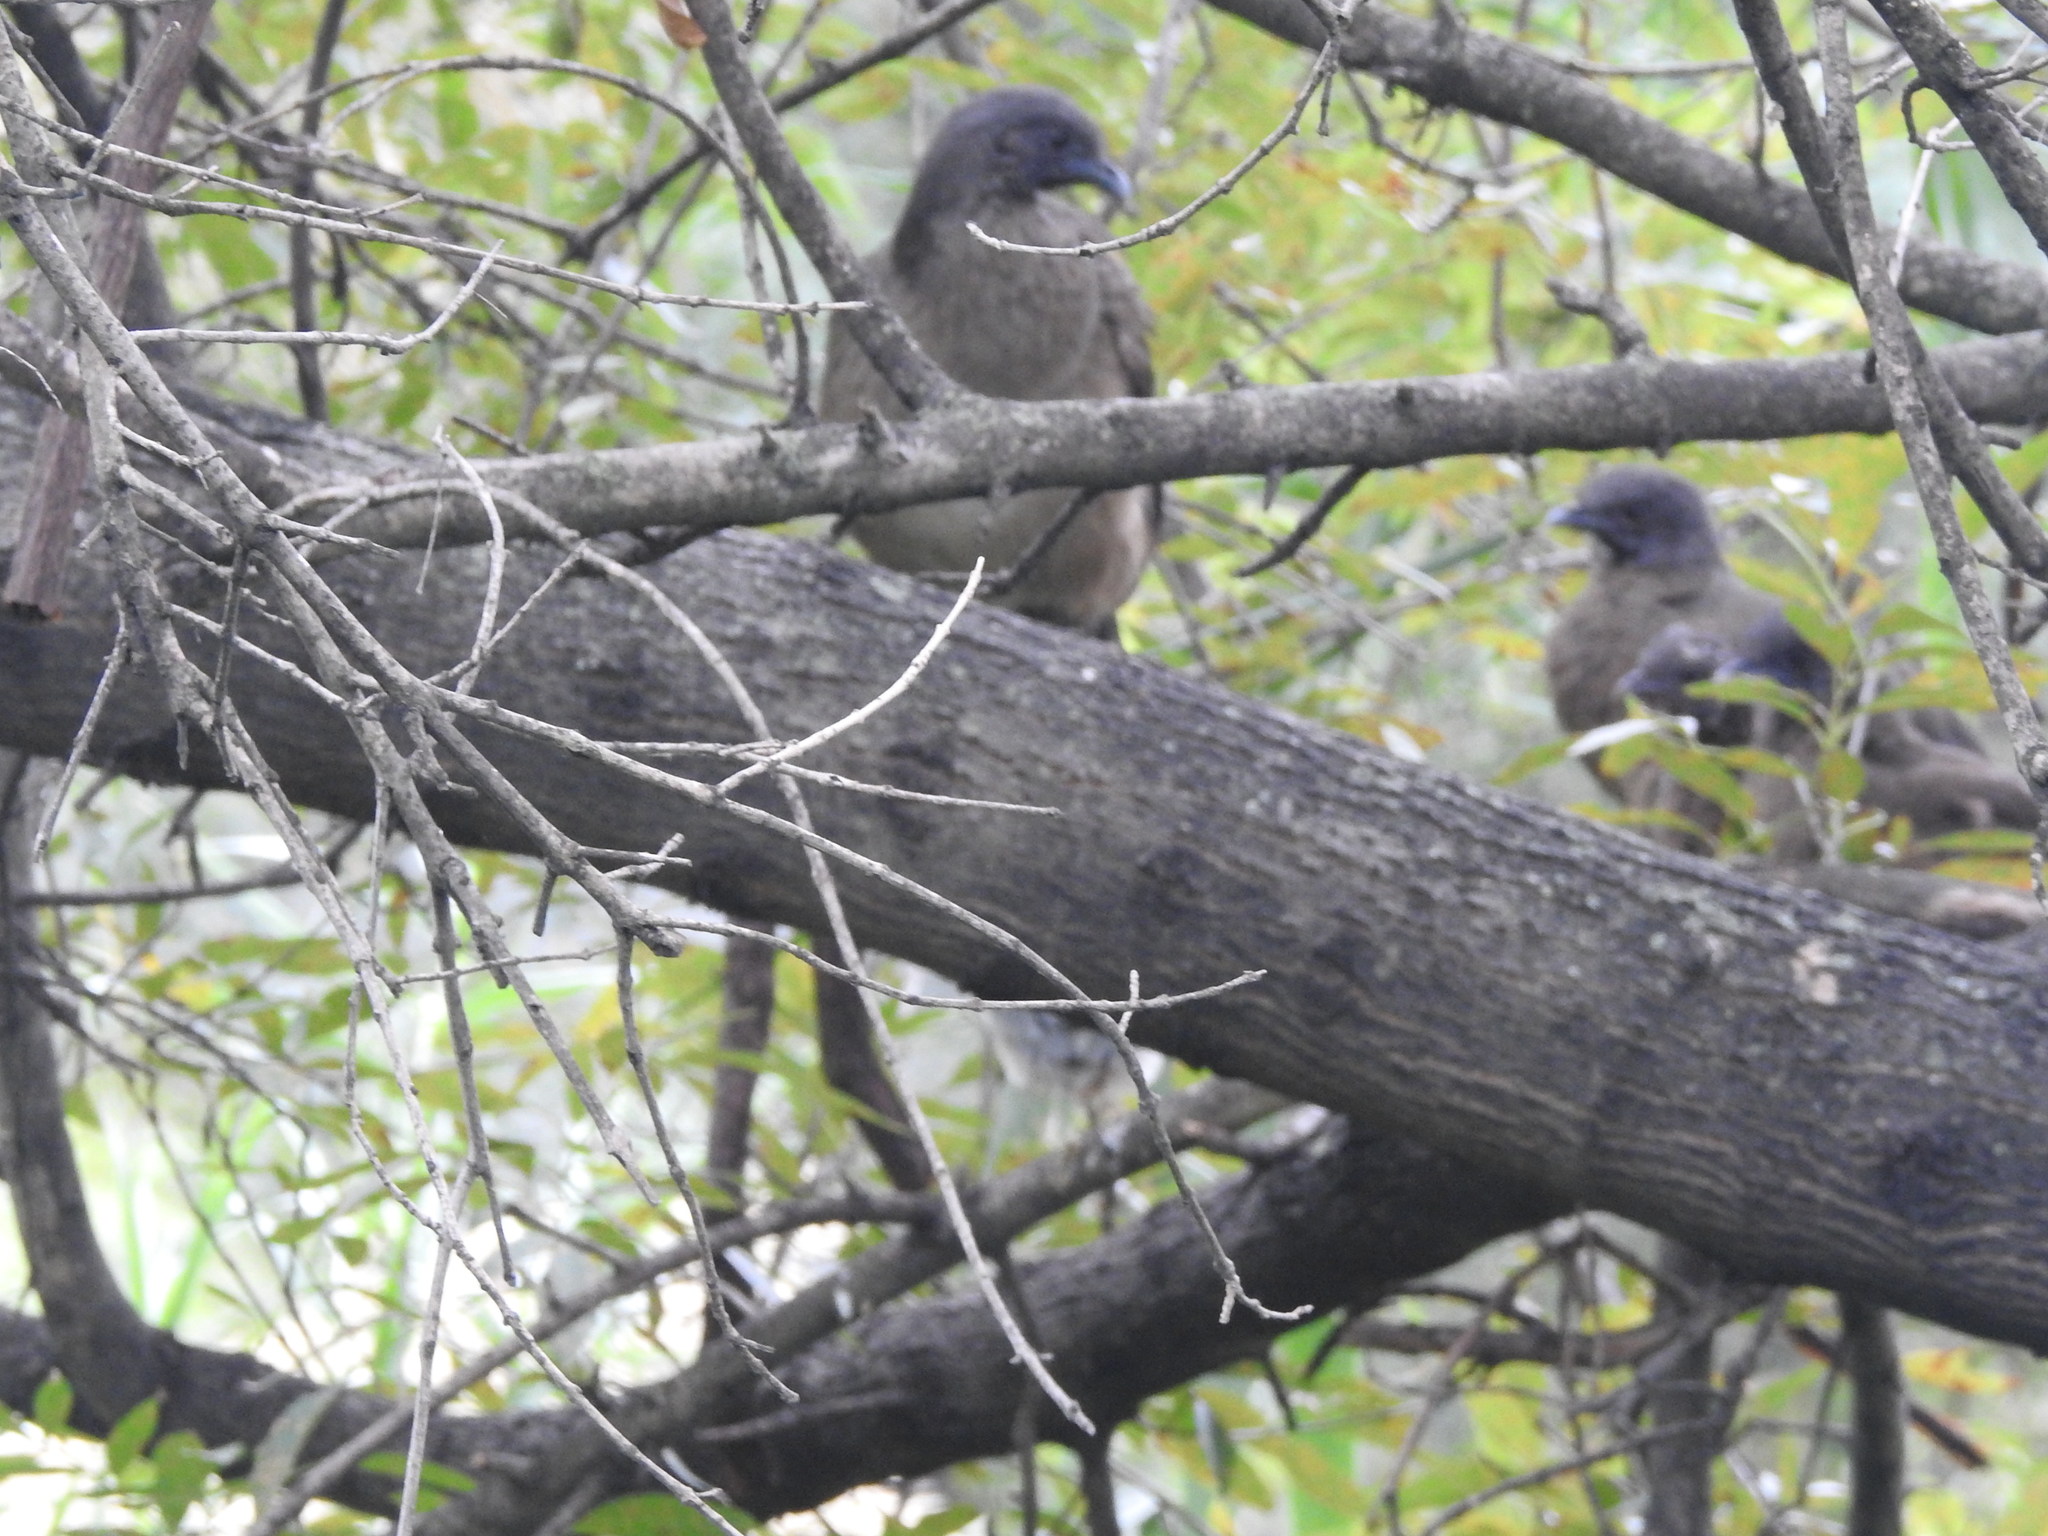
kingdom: Animalia
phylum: Chordata
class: Aves
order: Galliformes
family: Cracidae
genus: Ortalis
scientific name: Ortalis vetula
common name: Plain chachalaca
